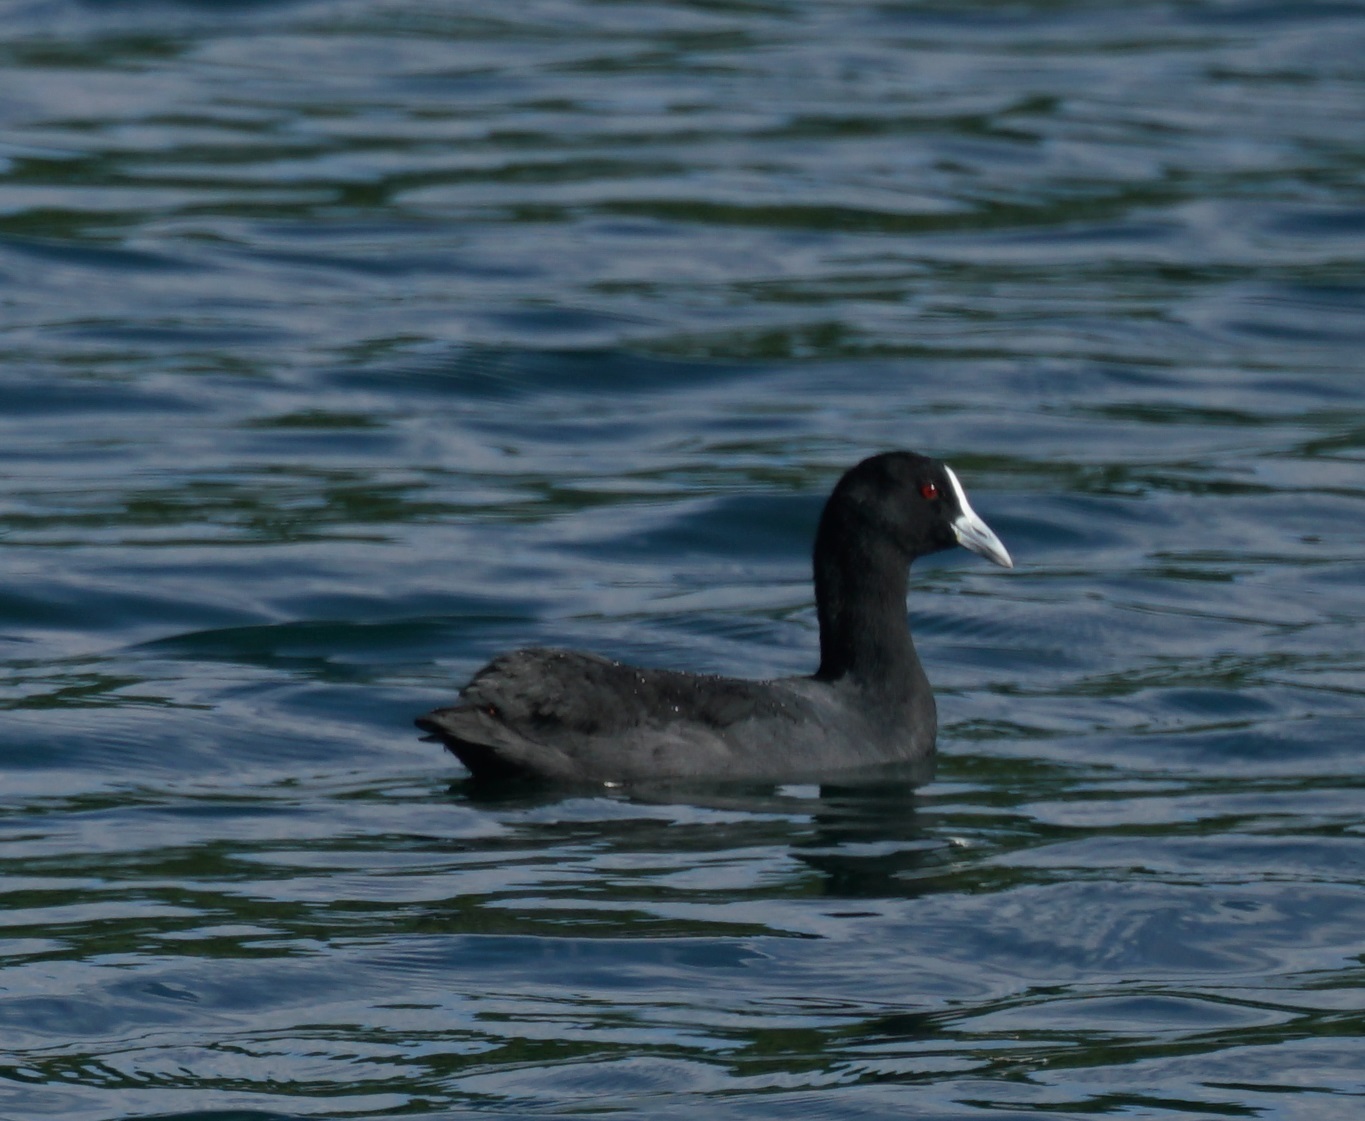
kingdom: Animalia
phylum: Chordata
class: Aves
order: Gruiformes
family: Rallidae
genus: Fulica
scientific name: Fulica atra
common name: Eurasian coot
